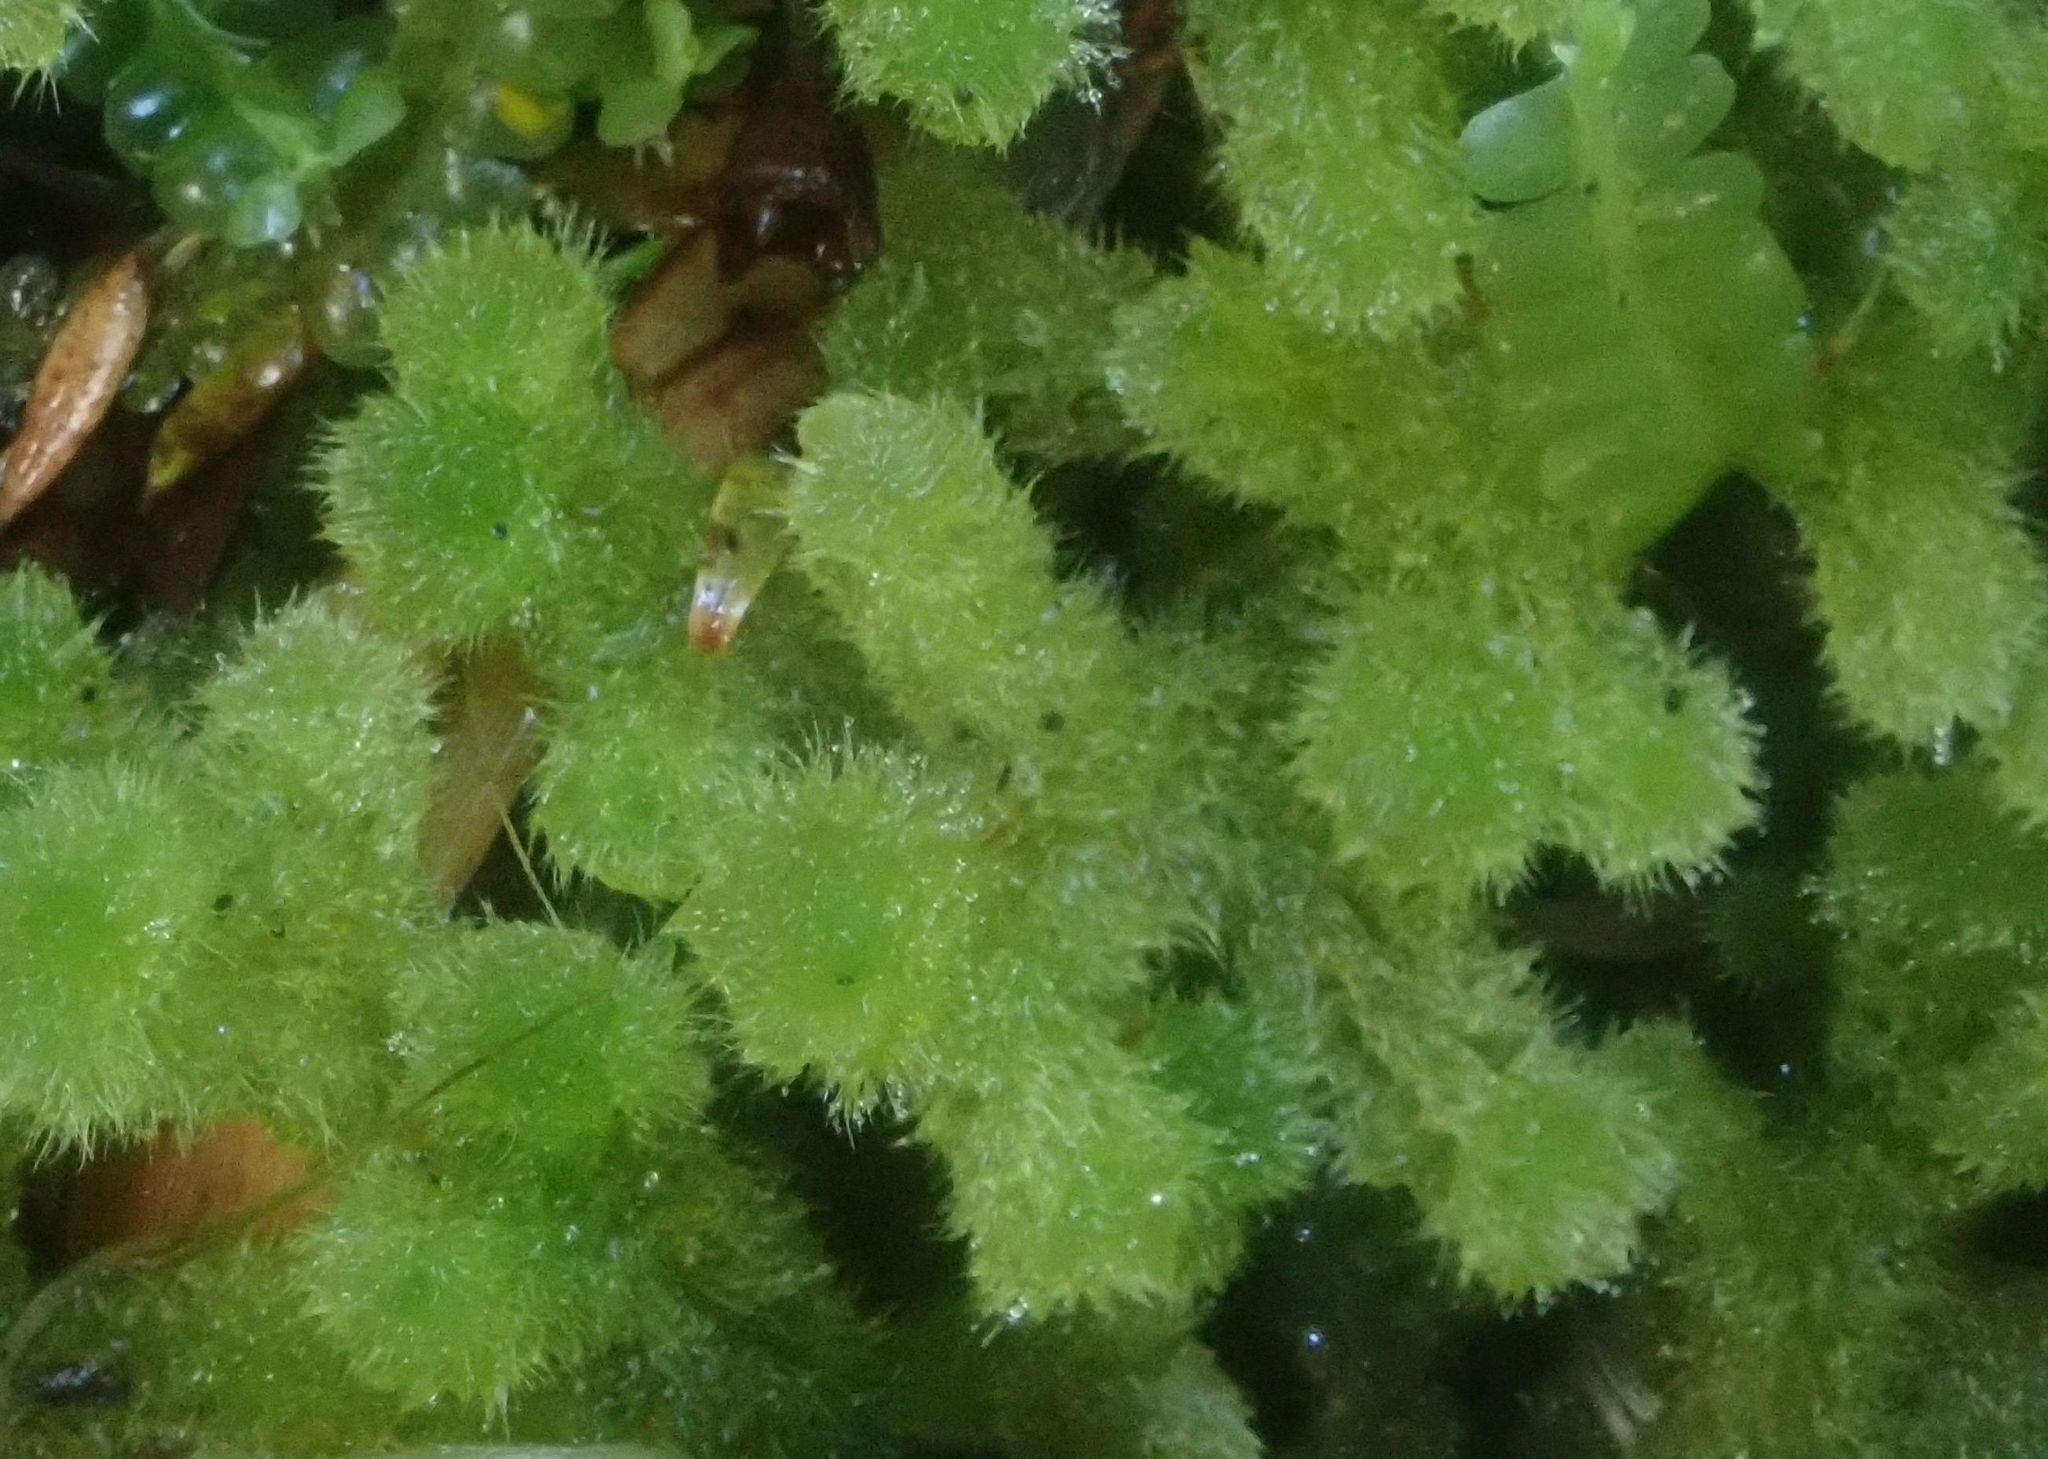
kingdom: Plantae
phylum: Marchantiophyta
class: Jungermanniopsida
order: Jungermanniales
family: Trichocoleaceae
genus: Leiomitra
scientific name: Leiomitra lanata
